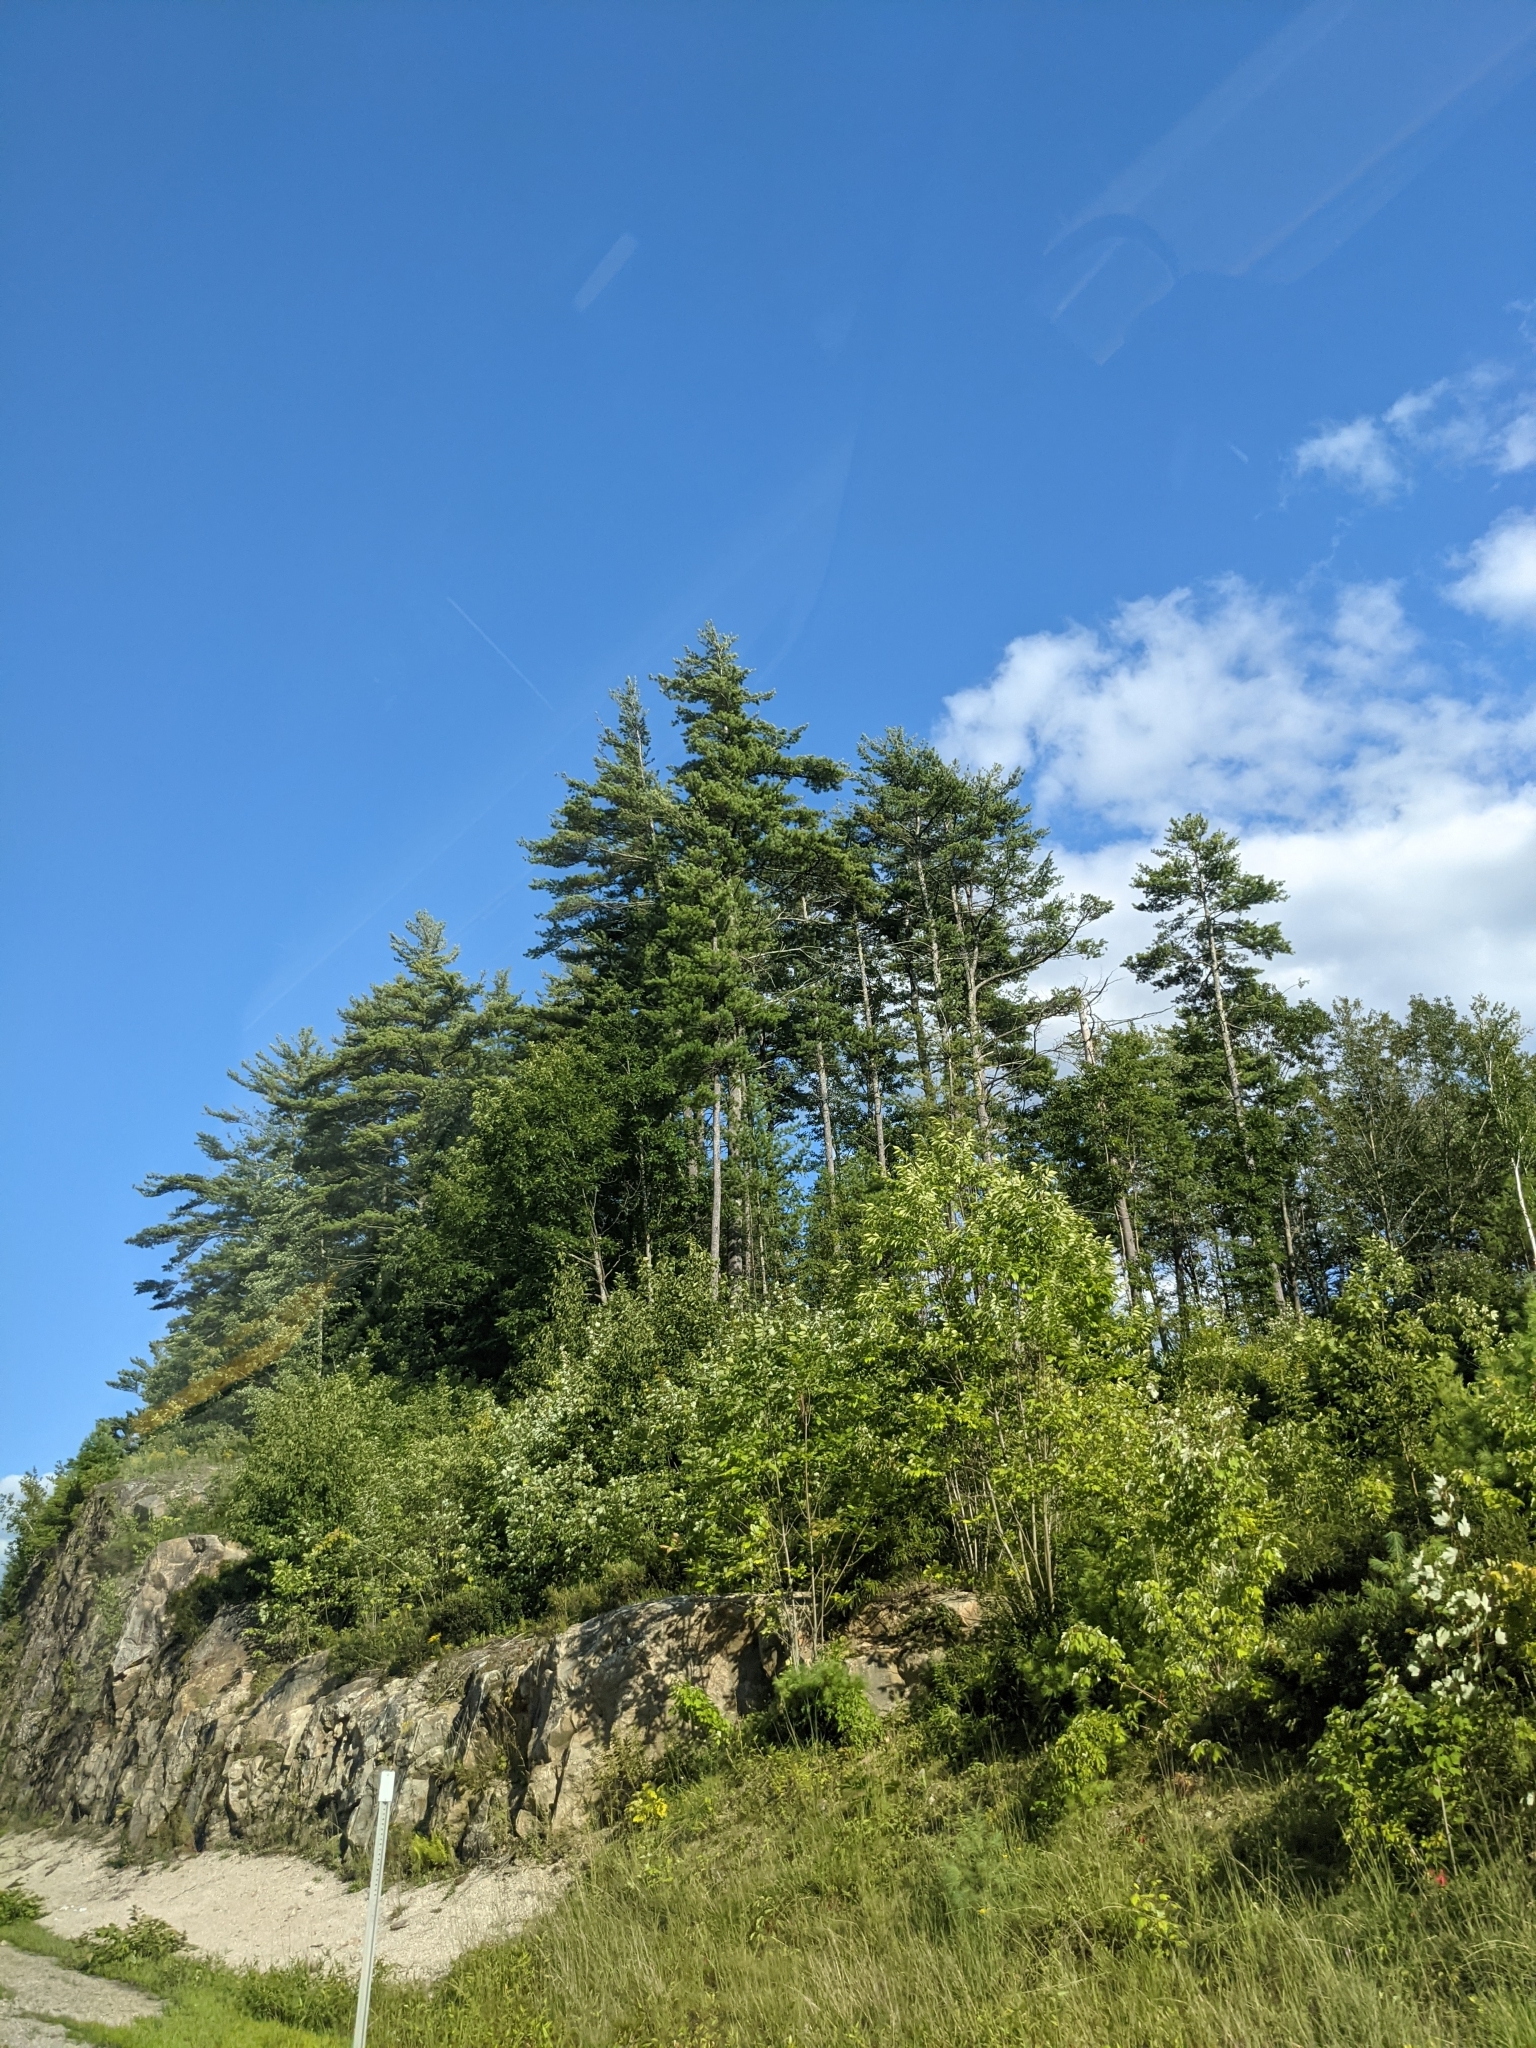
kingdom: Plantae
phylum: Tracheophyta
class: Pinopsida
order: Pinales
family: Pinaceae
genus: Pinus
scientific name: Pinus strobus
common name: Weymouth pine
